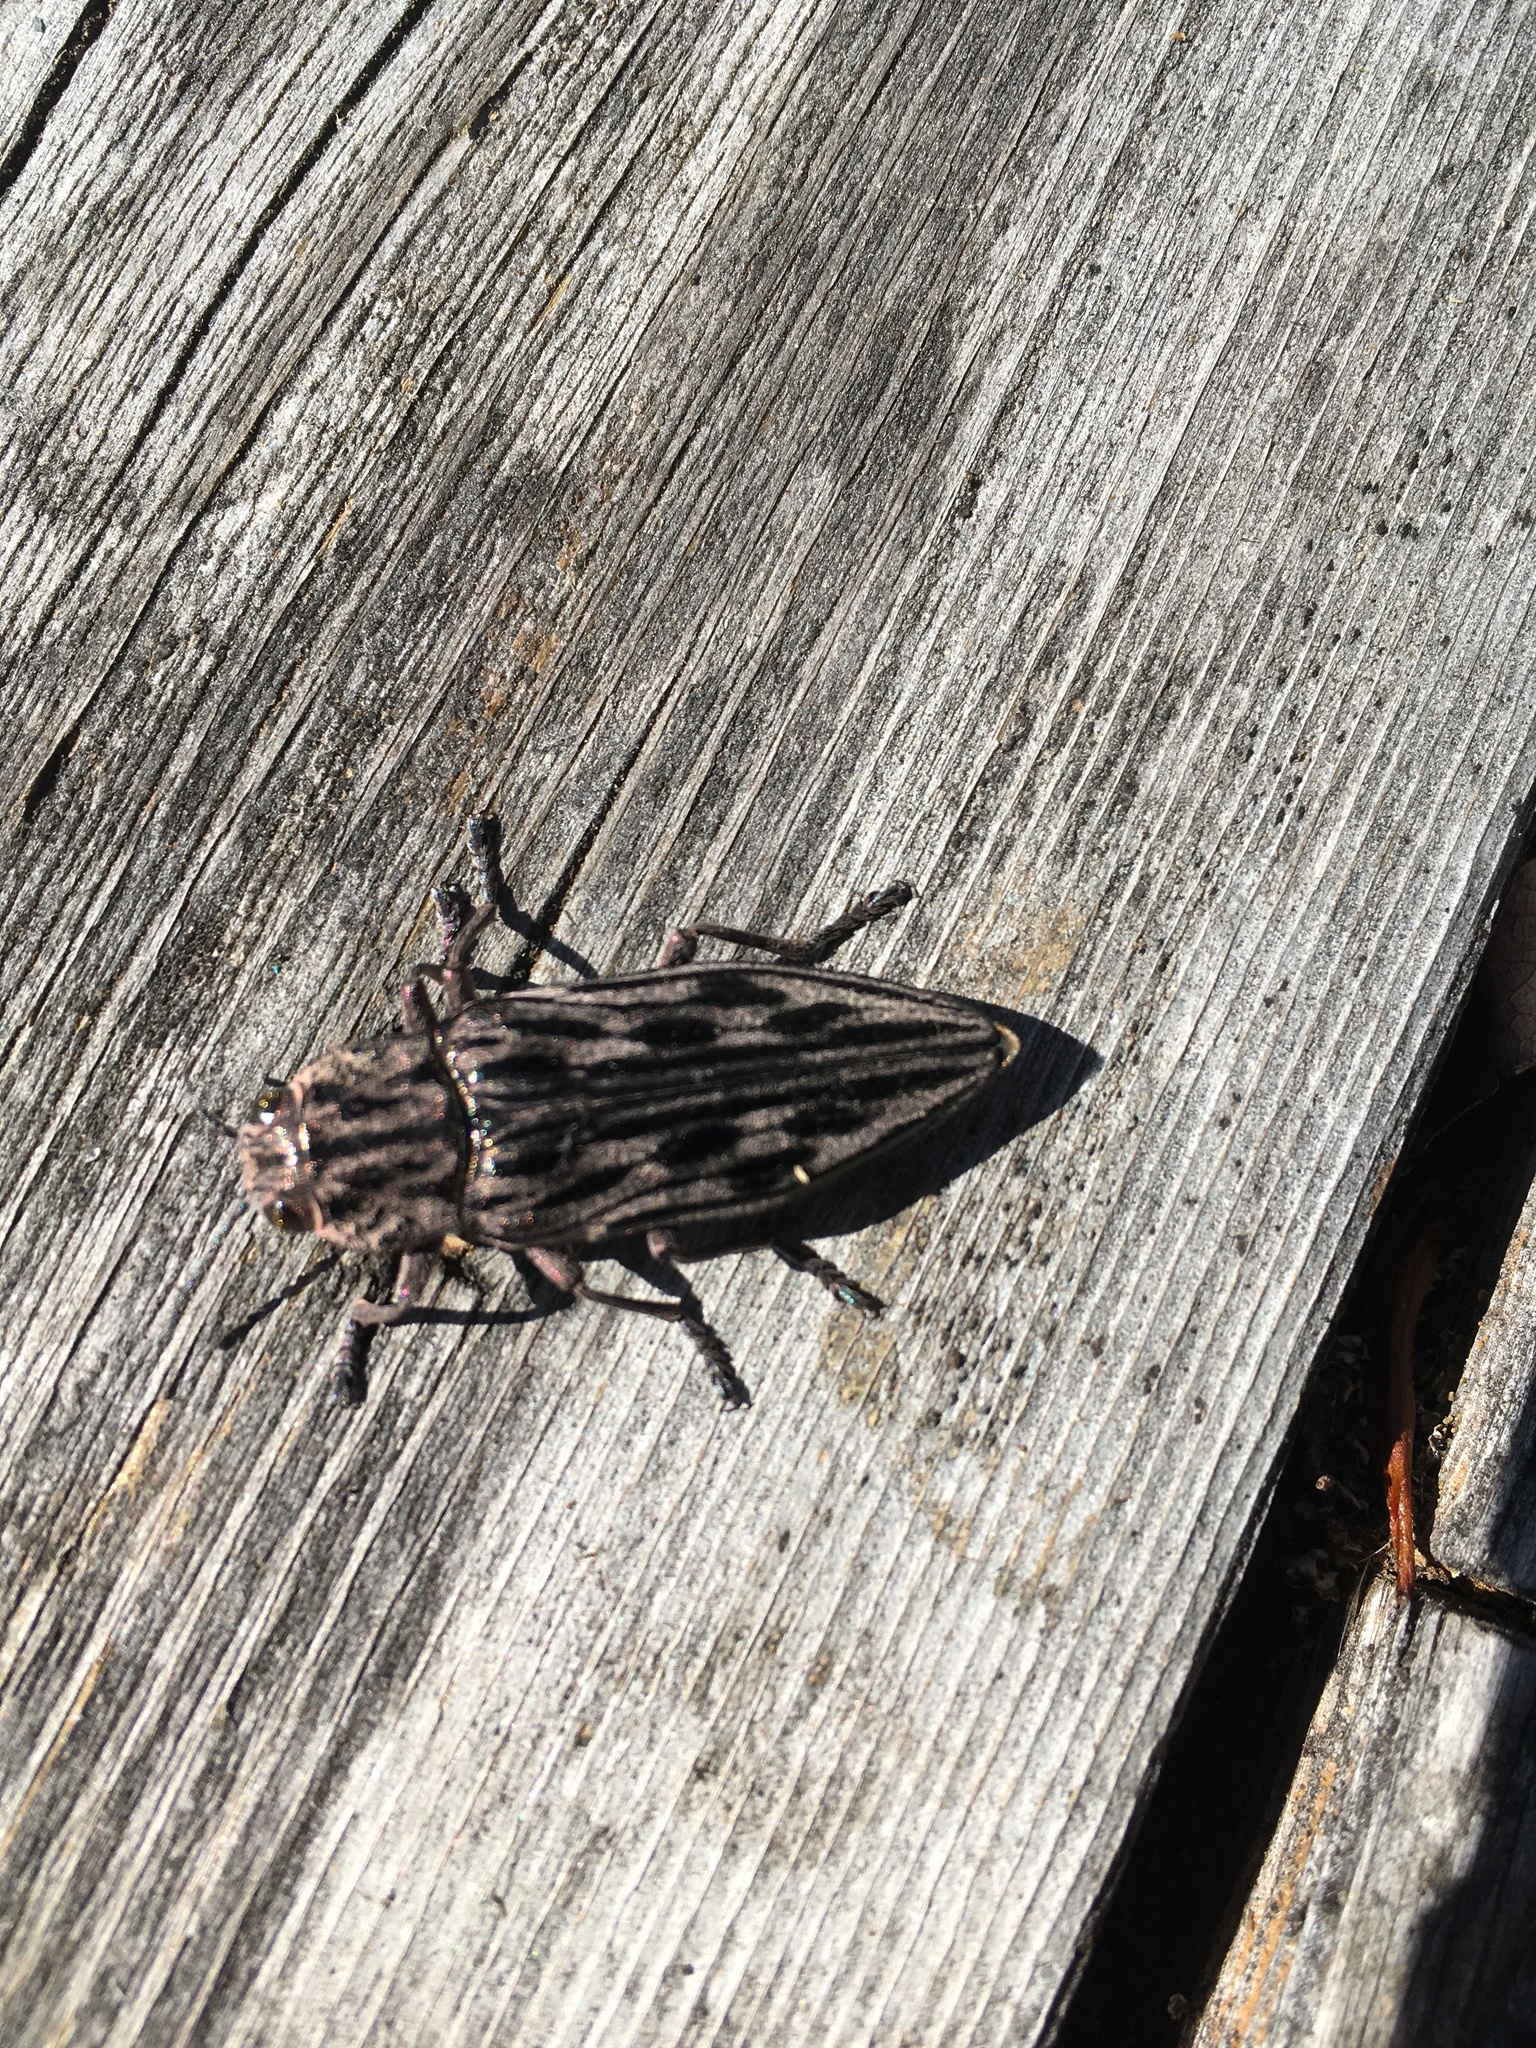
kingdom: Animalia
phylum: Arthropoda
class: Insecta
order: Coleoptera
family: Buprestidae
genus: Chalcophora
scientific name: Chalcophora angulicollis
